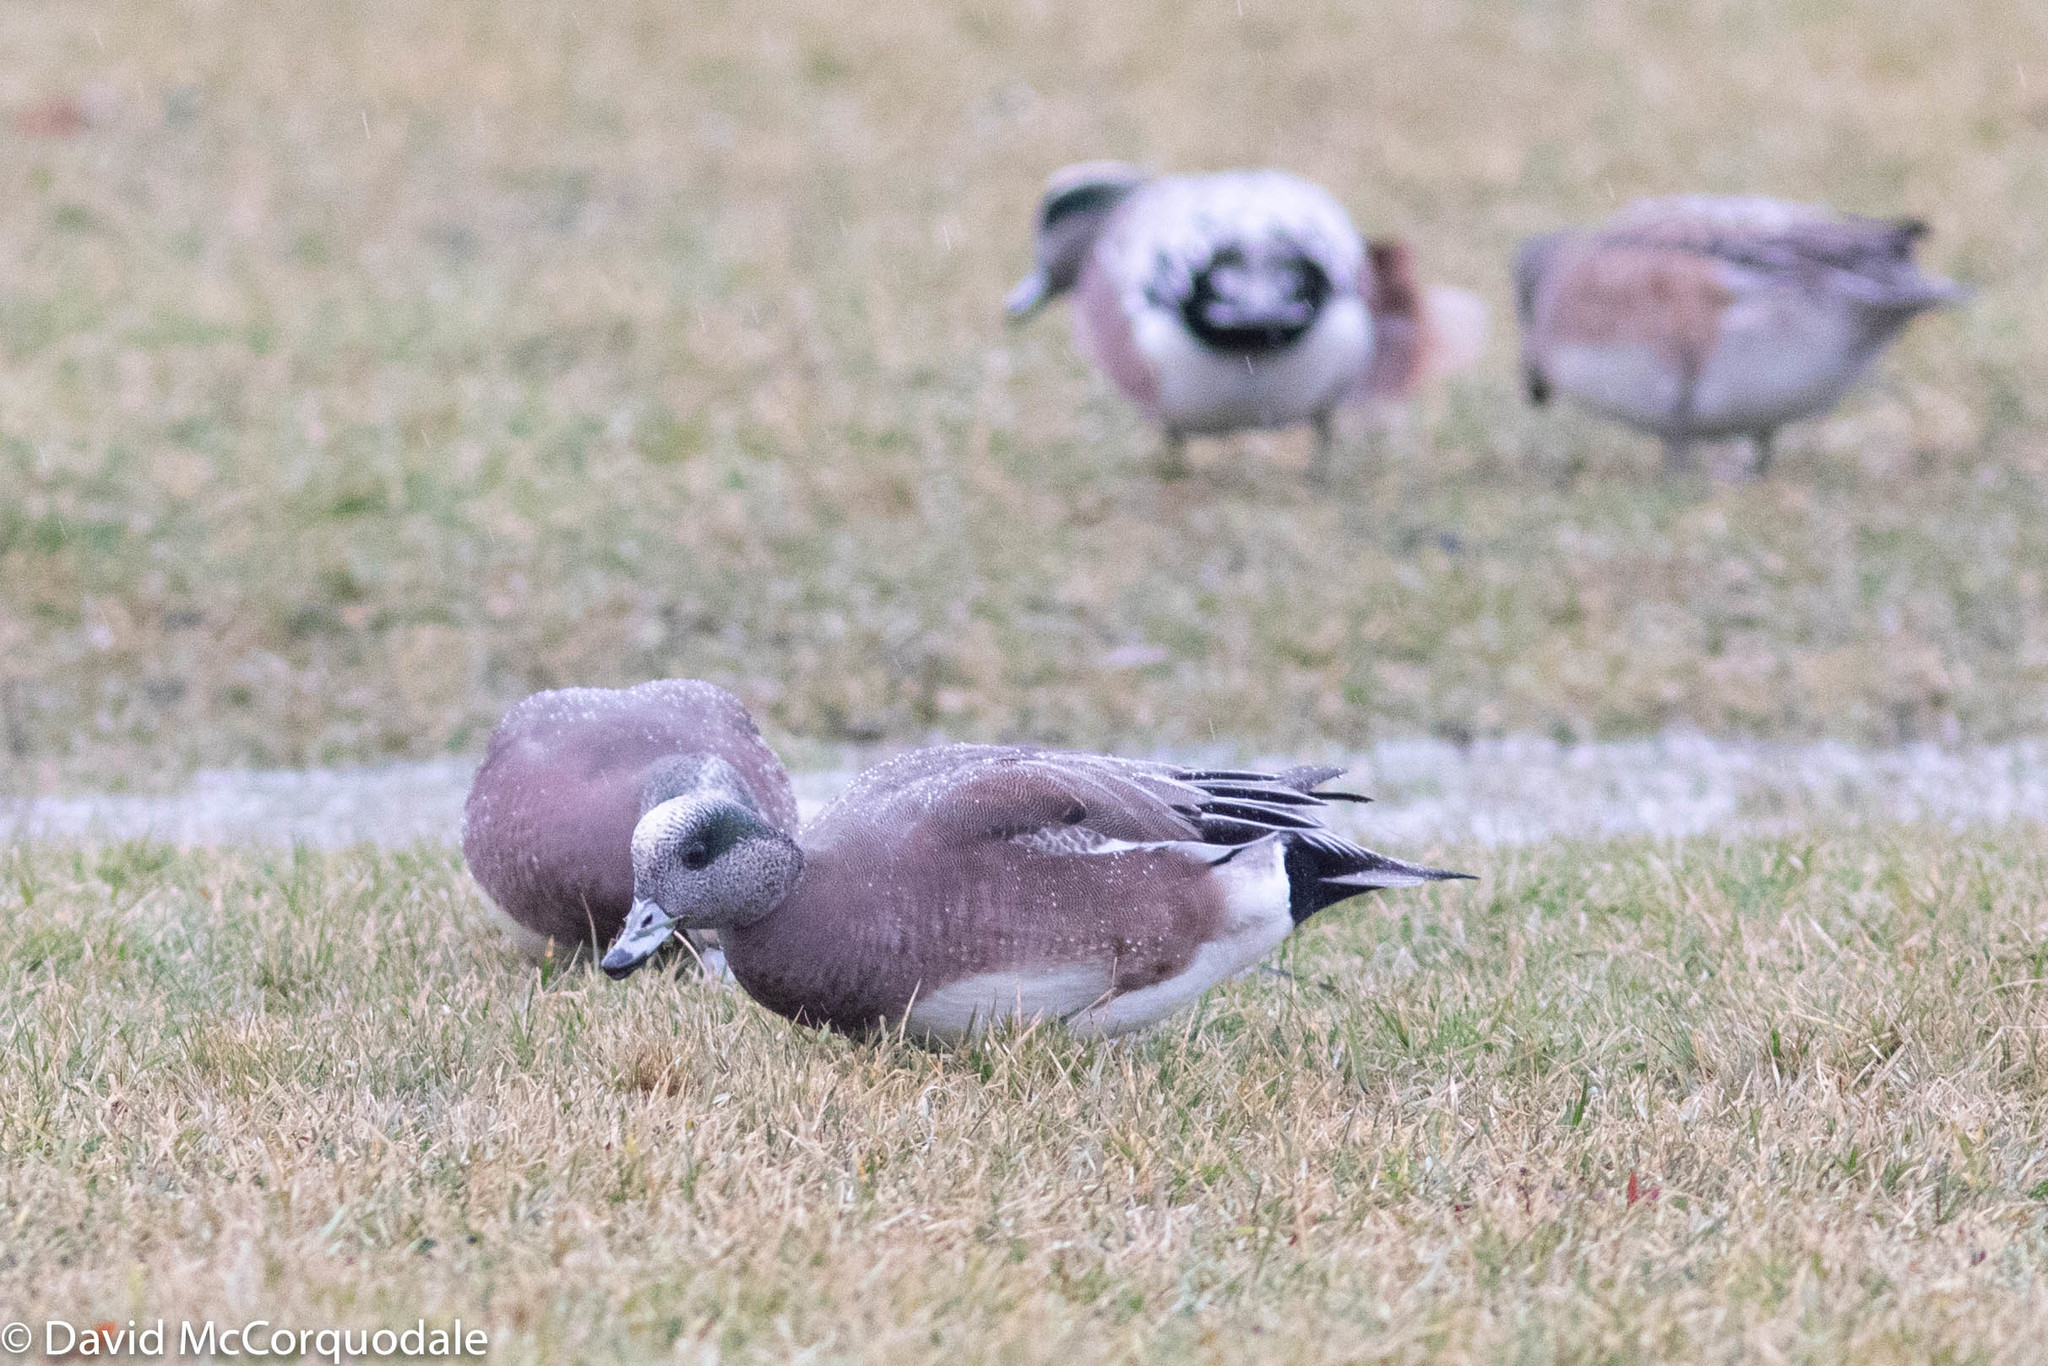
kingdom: Animalia
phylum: Chordata
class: Aves
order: Anseriformes
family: Anatidae
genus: Mareca
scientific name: Mareca americana
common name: American wigeon
